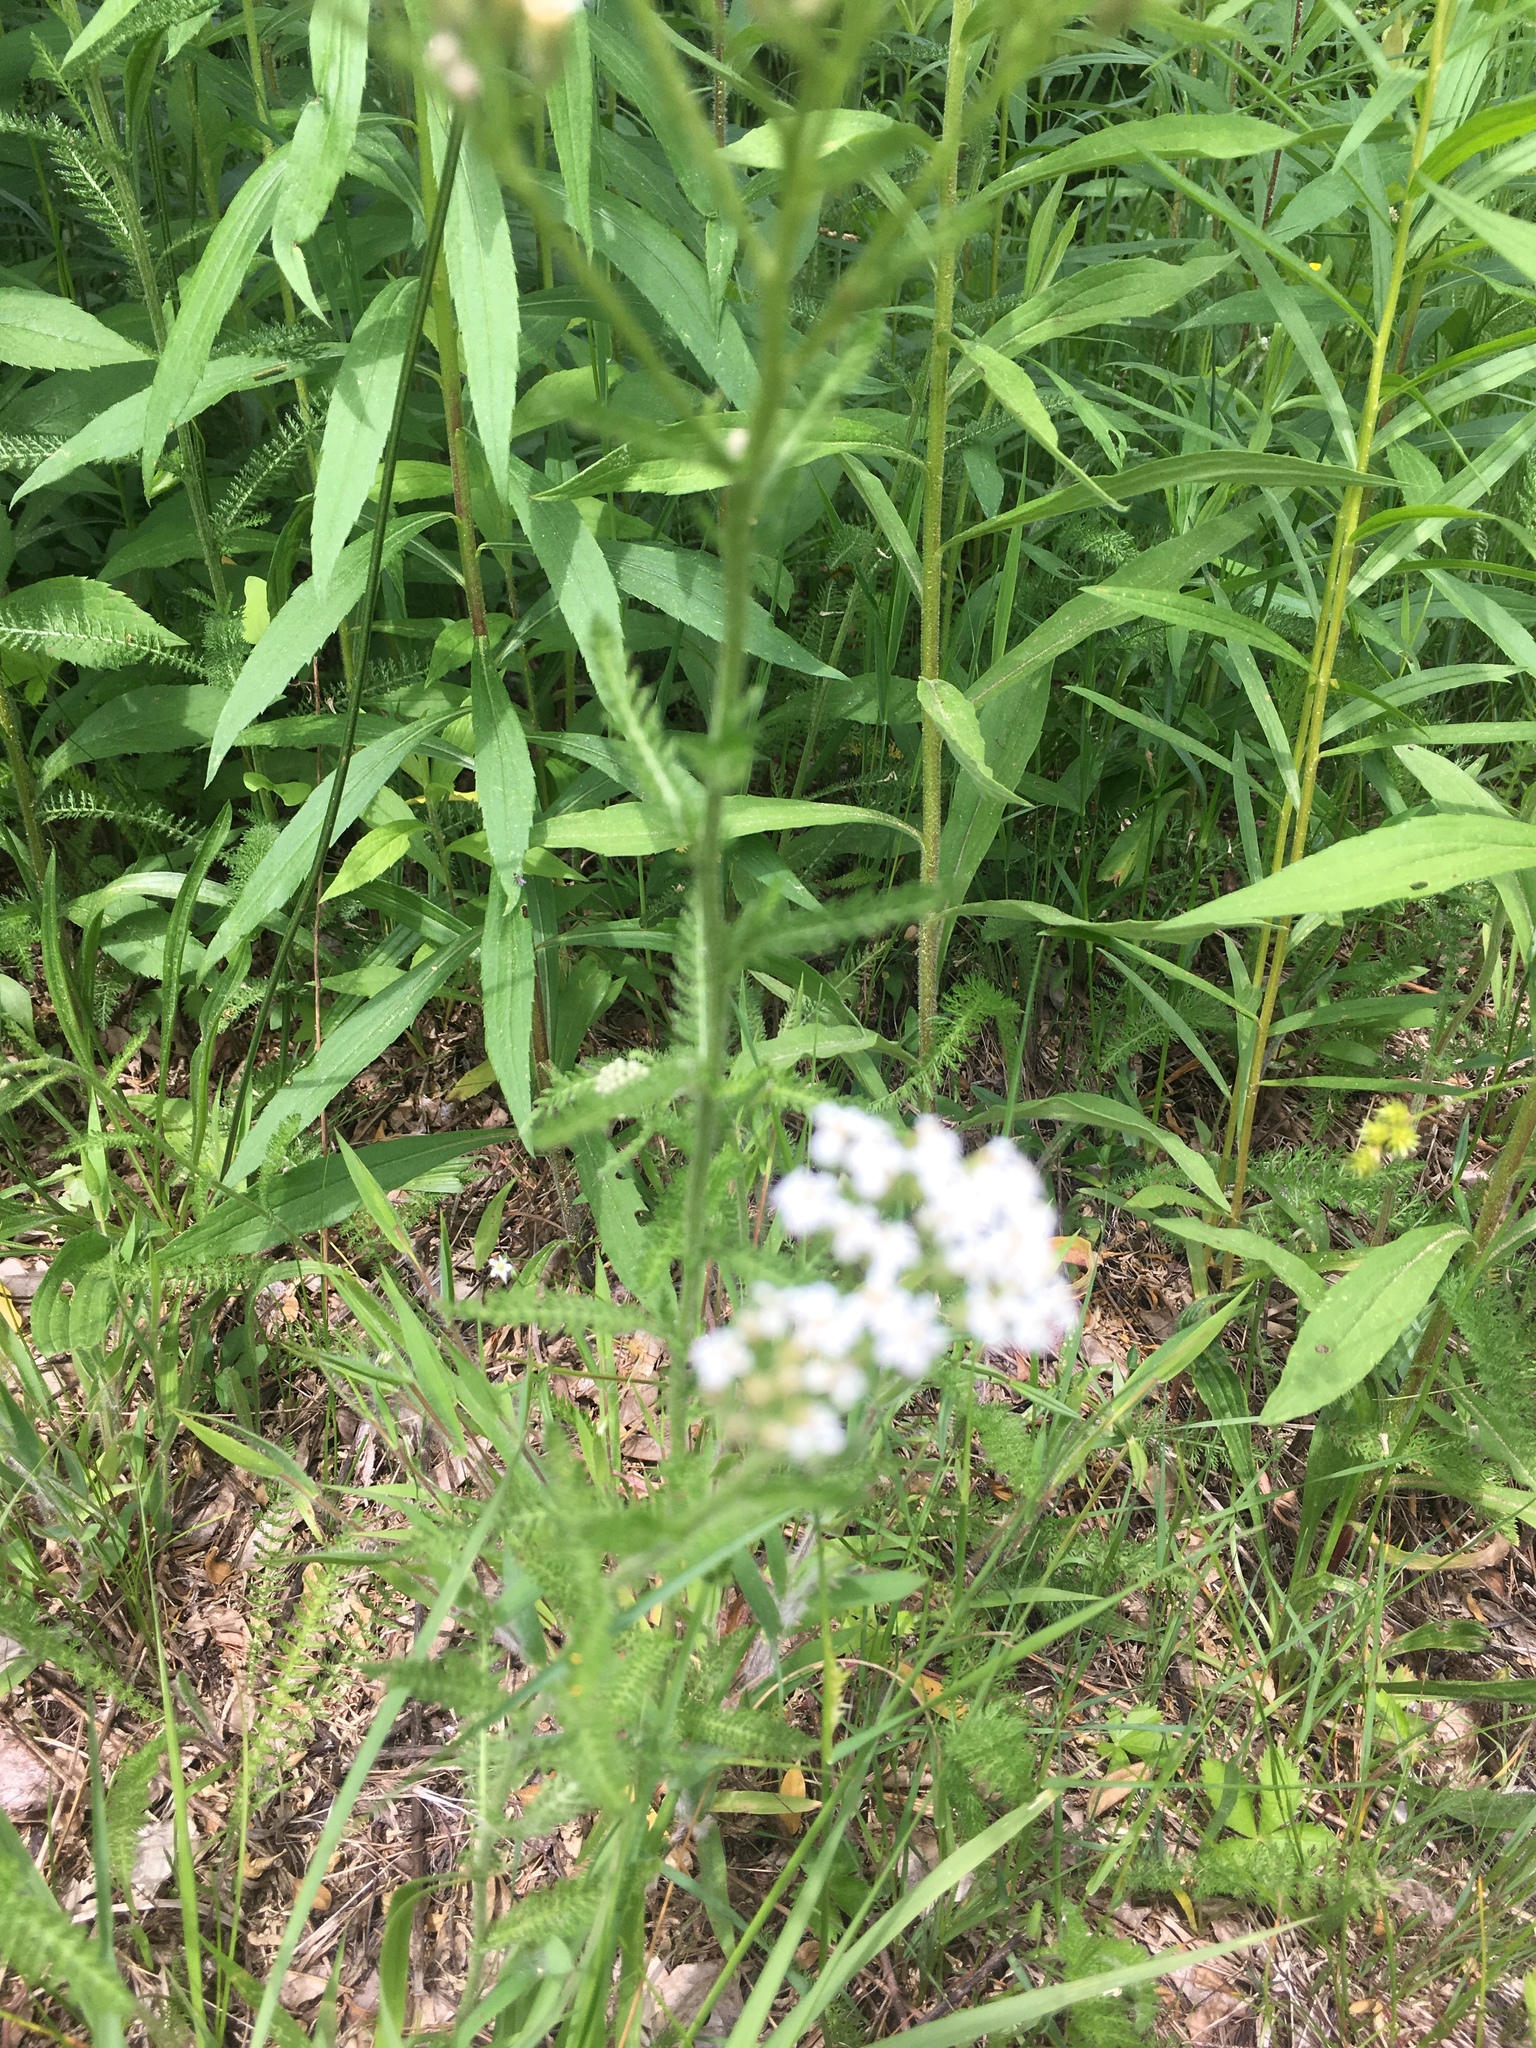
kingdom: Plantae
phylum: Tracheophyta
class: Magnoliopsida
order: Asterales
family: Asteraceae
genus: Achillea
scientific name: Achillea millefolium
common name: Yarrow
